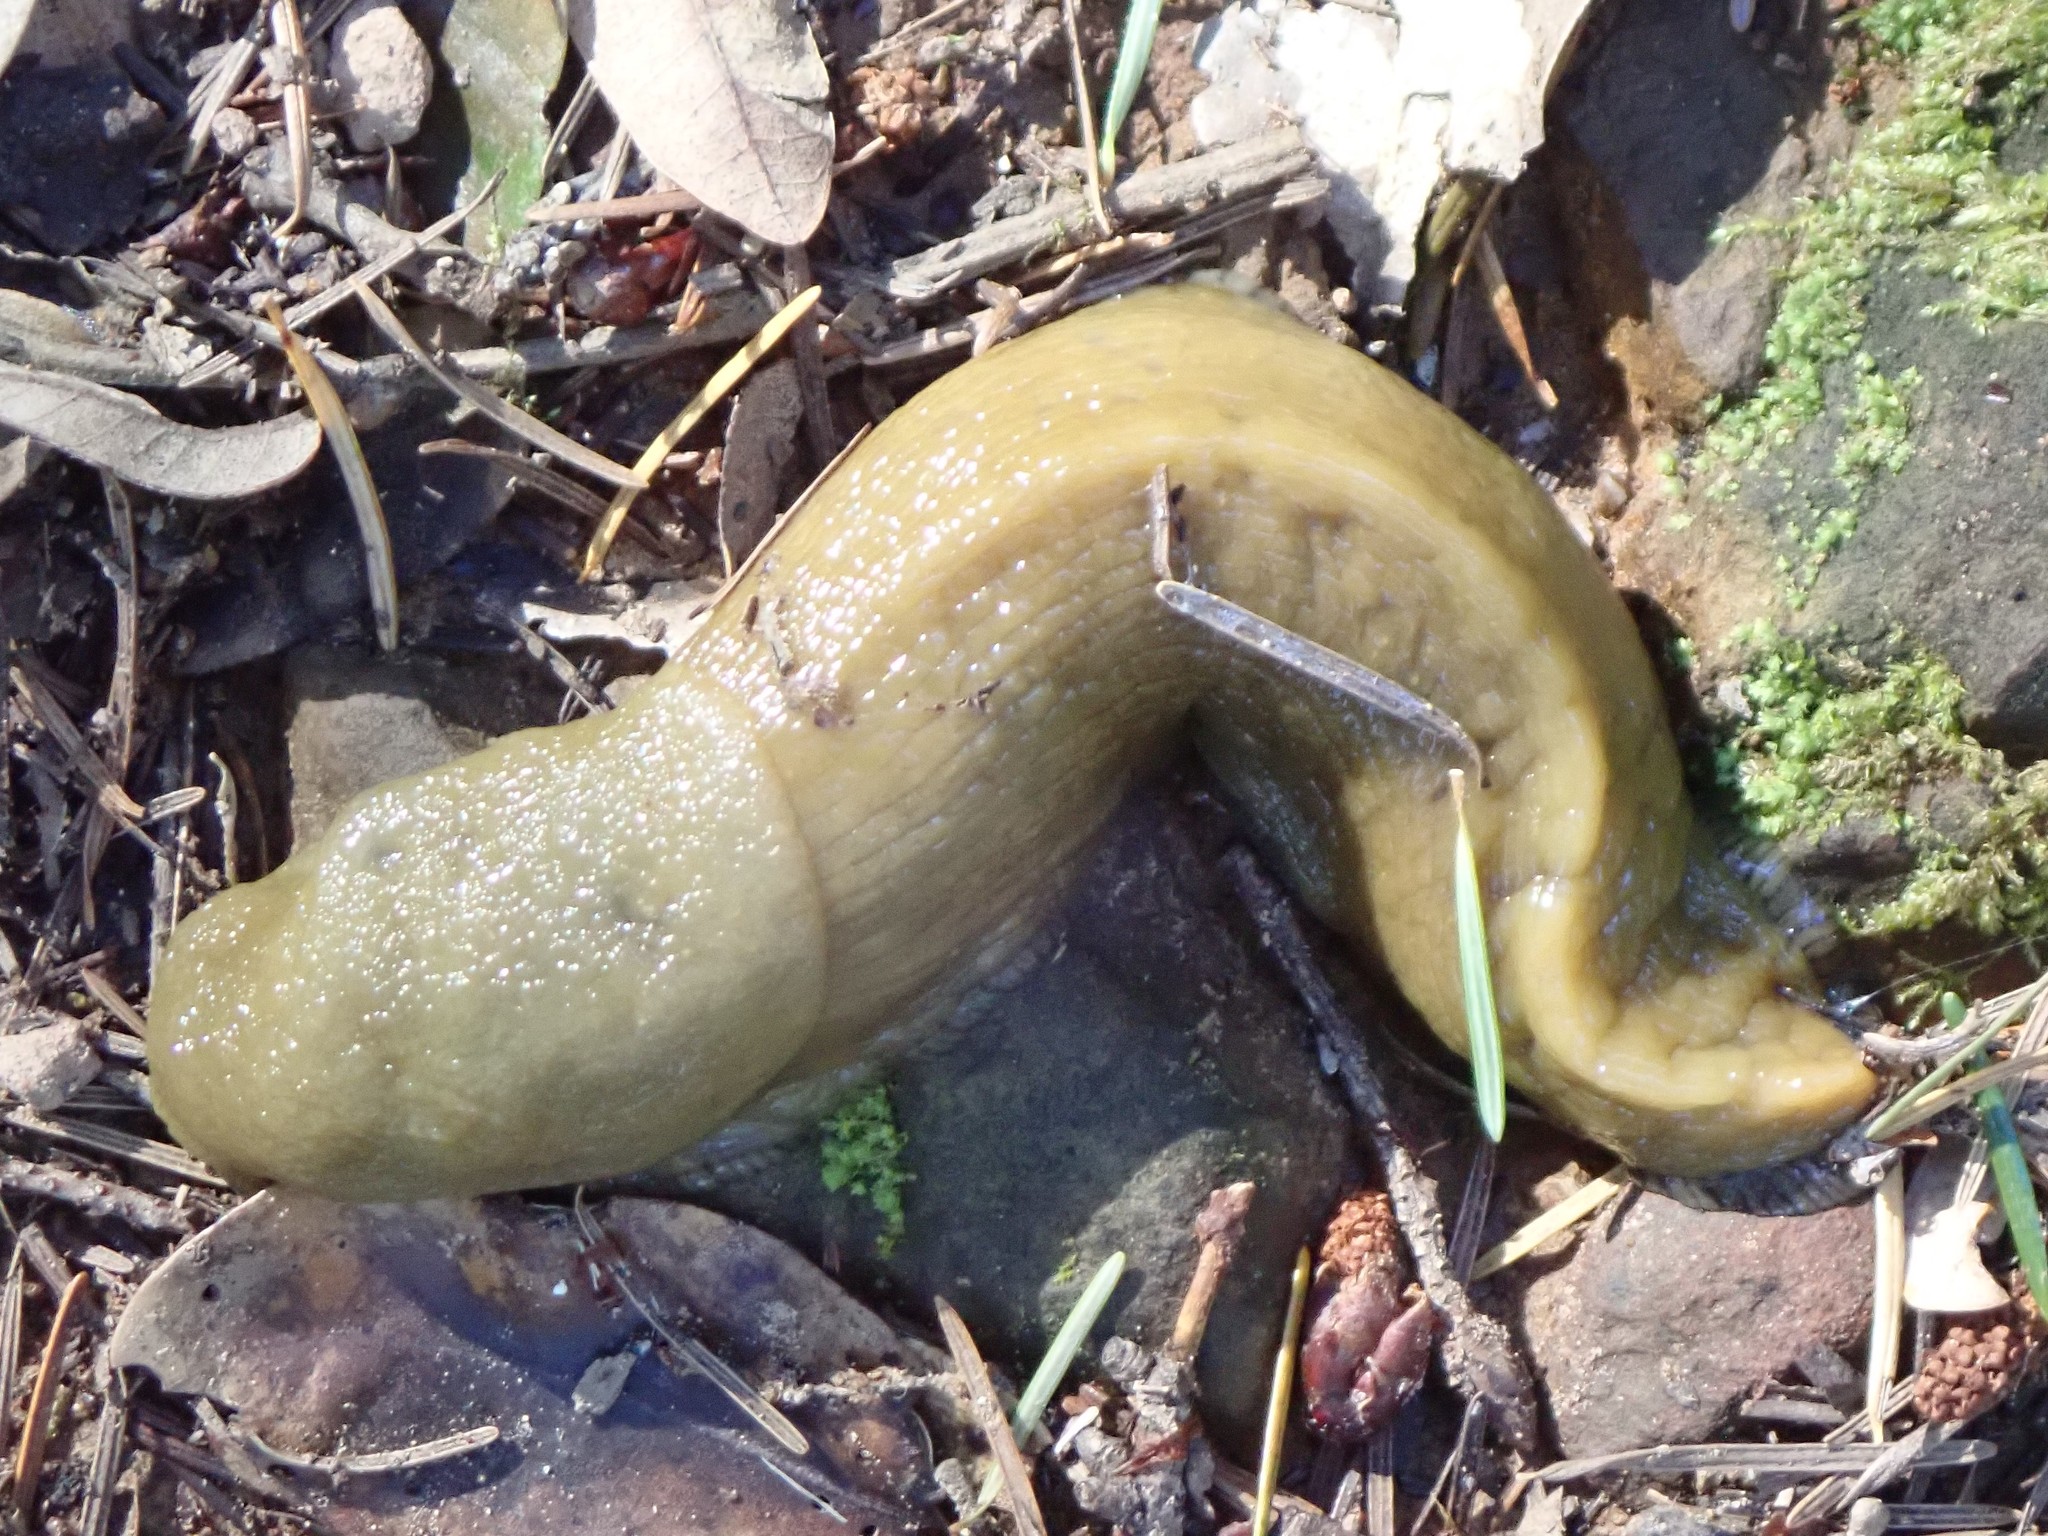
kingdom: Animalia
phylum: Mollusca
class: Gastropoda
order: Stylommatophora
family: Ariolimacidae
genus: Ariolimax
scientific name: Ariolimax buttoni
